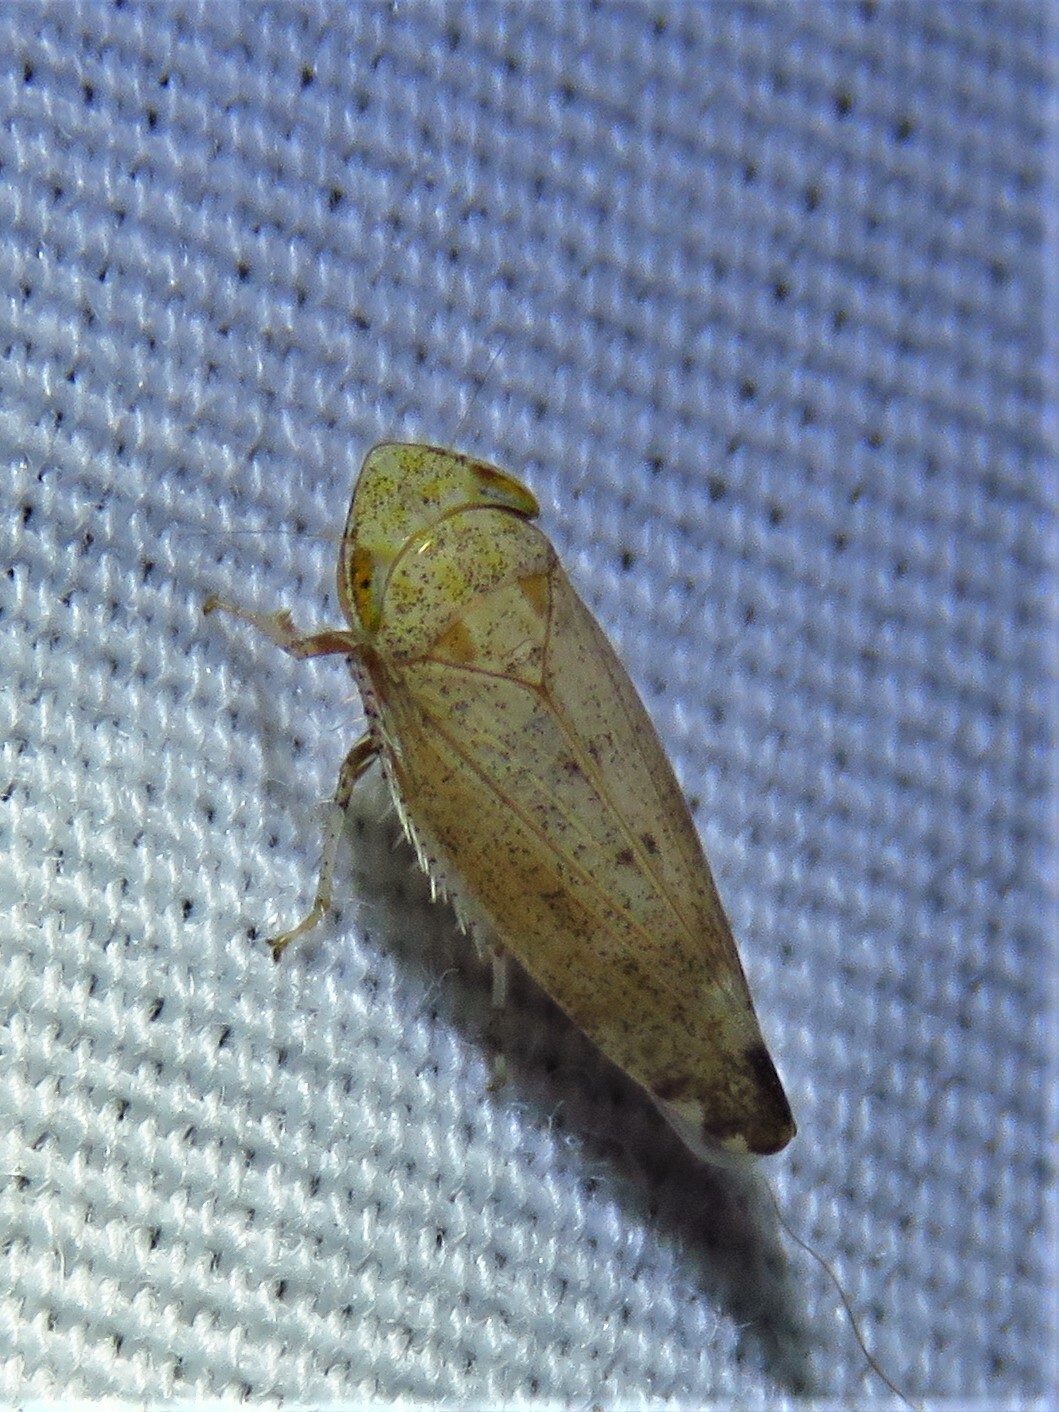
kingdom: Animalia
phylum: Arthropoda
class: Insecta
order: Hemiptera
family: Cicadellidae
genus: Fieberiella
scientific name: Fieberiella florii
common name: Flor’s leafhopper
